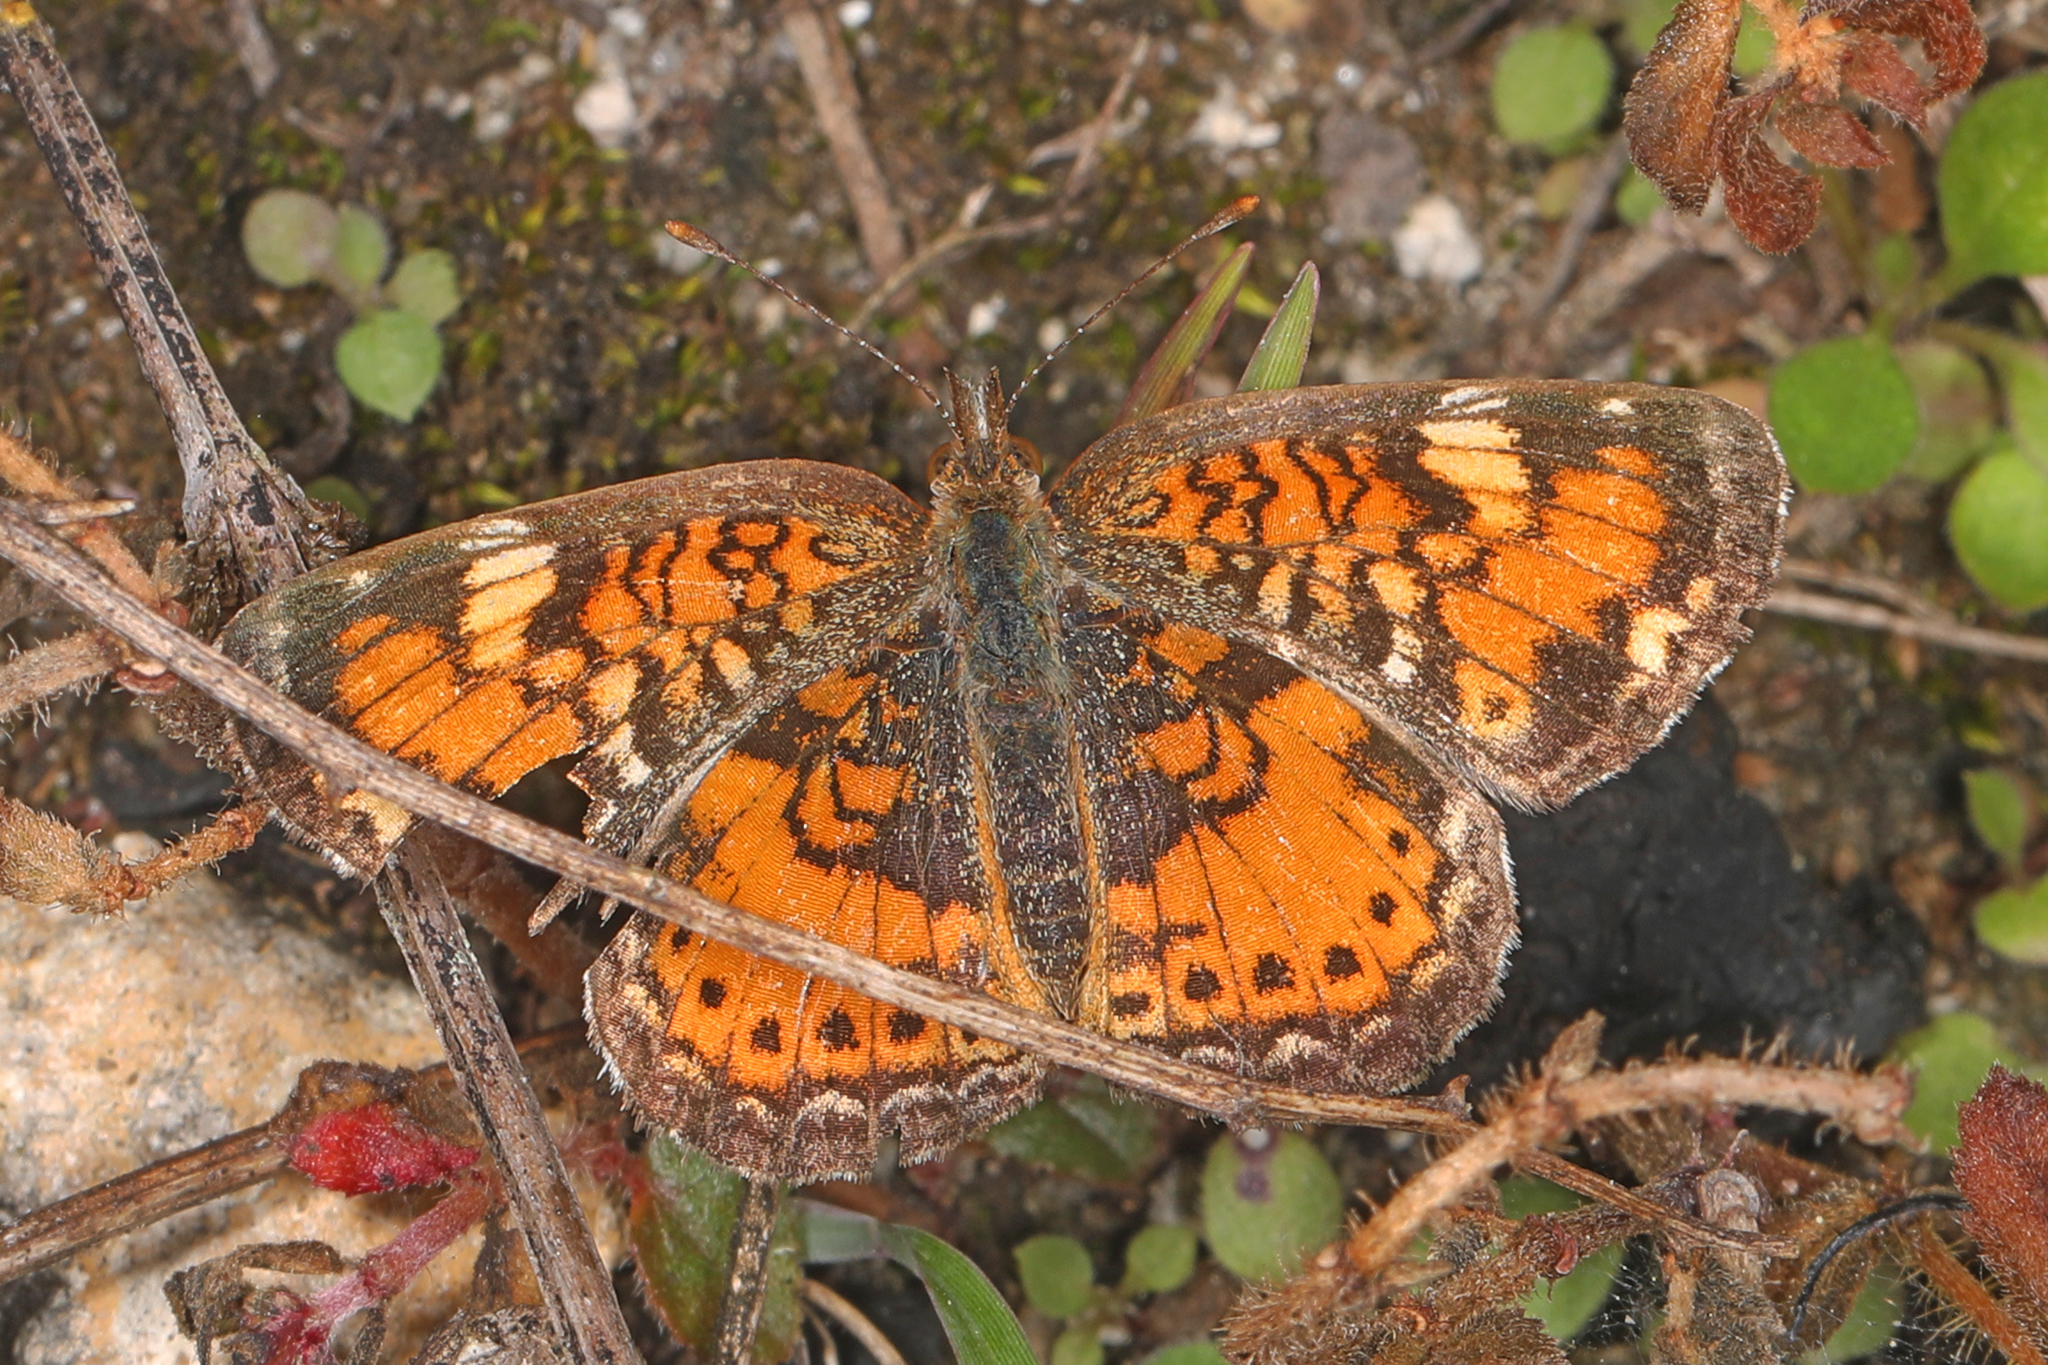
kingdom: Animalia
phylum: Arthropoda
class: Insecta
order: Lepidoptera
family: Nymphalidae
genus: Phyciodes
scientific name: Phyciodes tharos
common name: Pearl crescent
